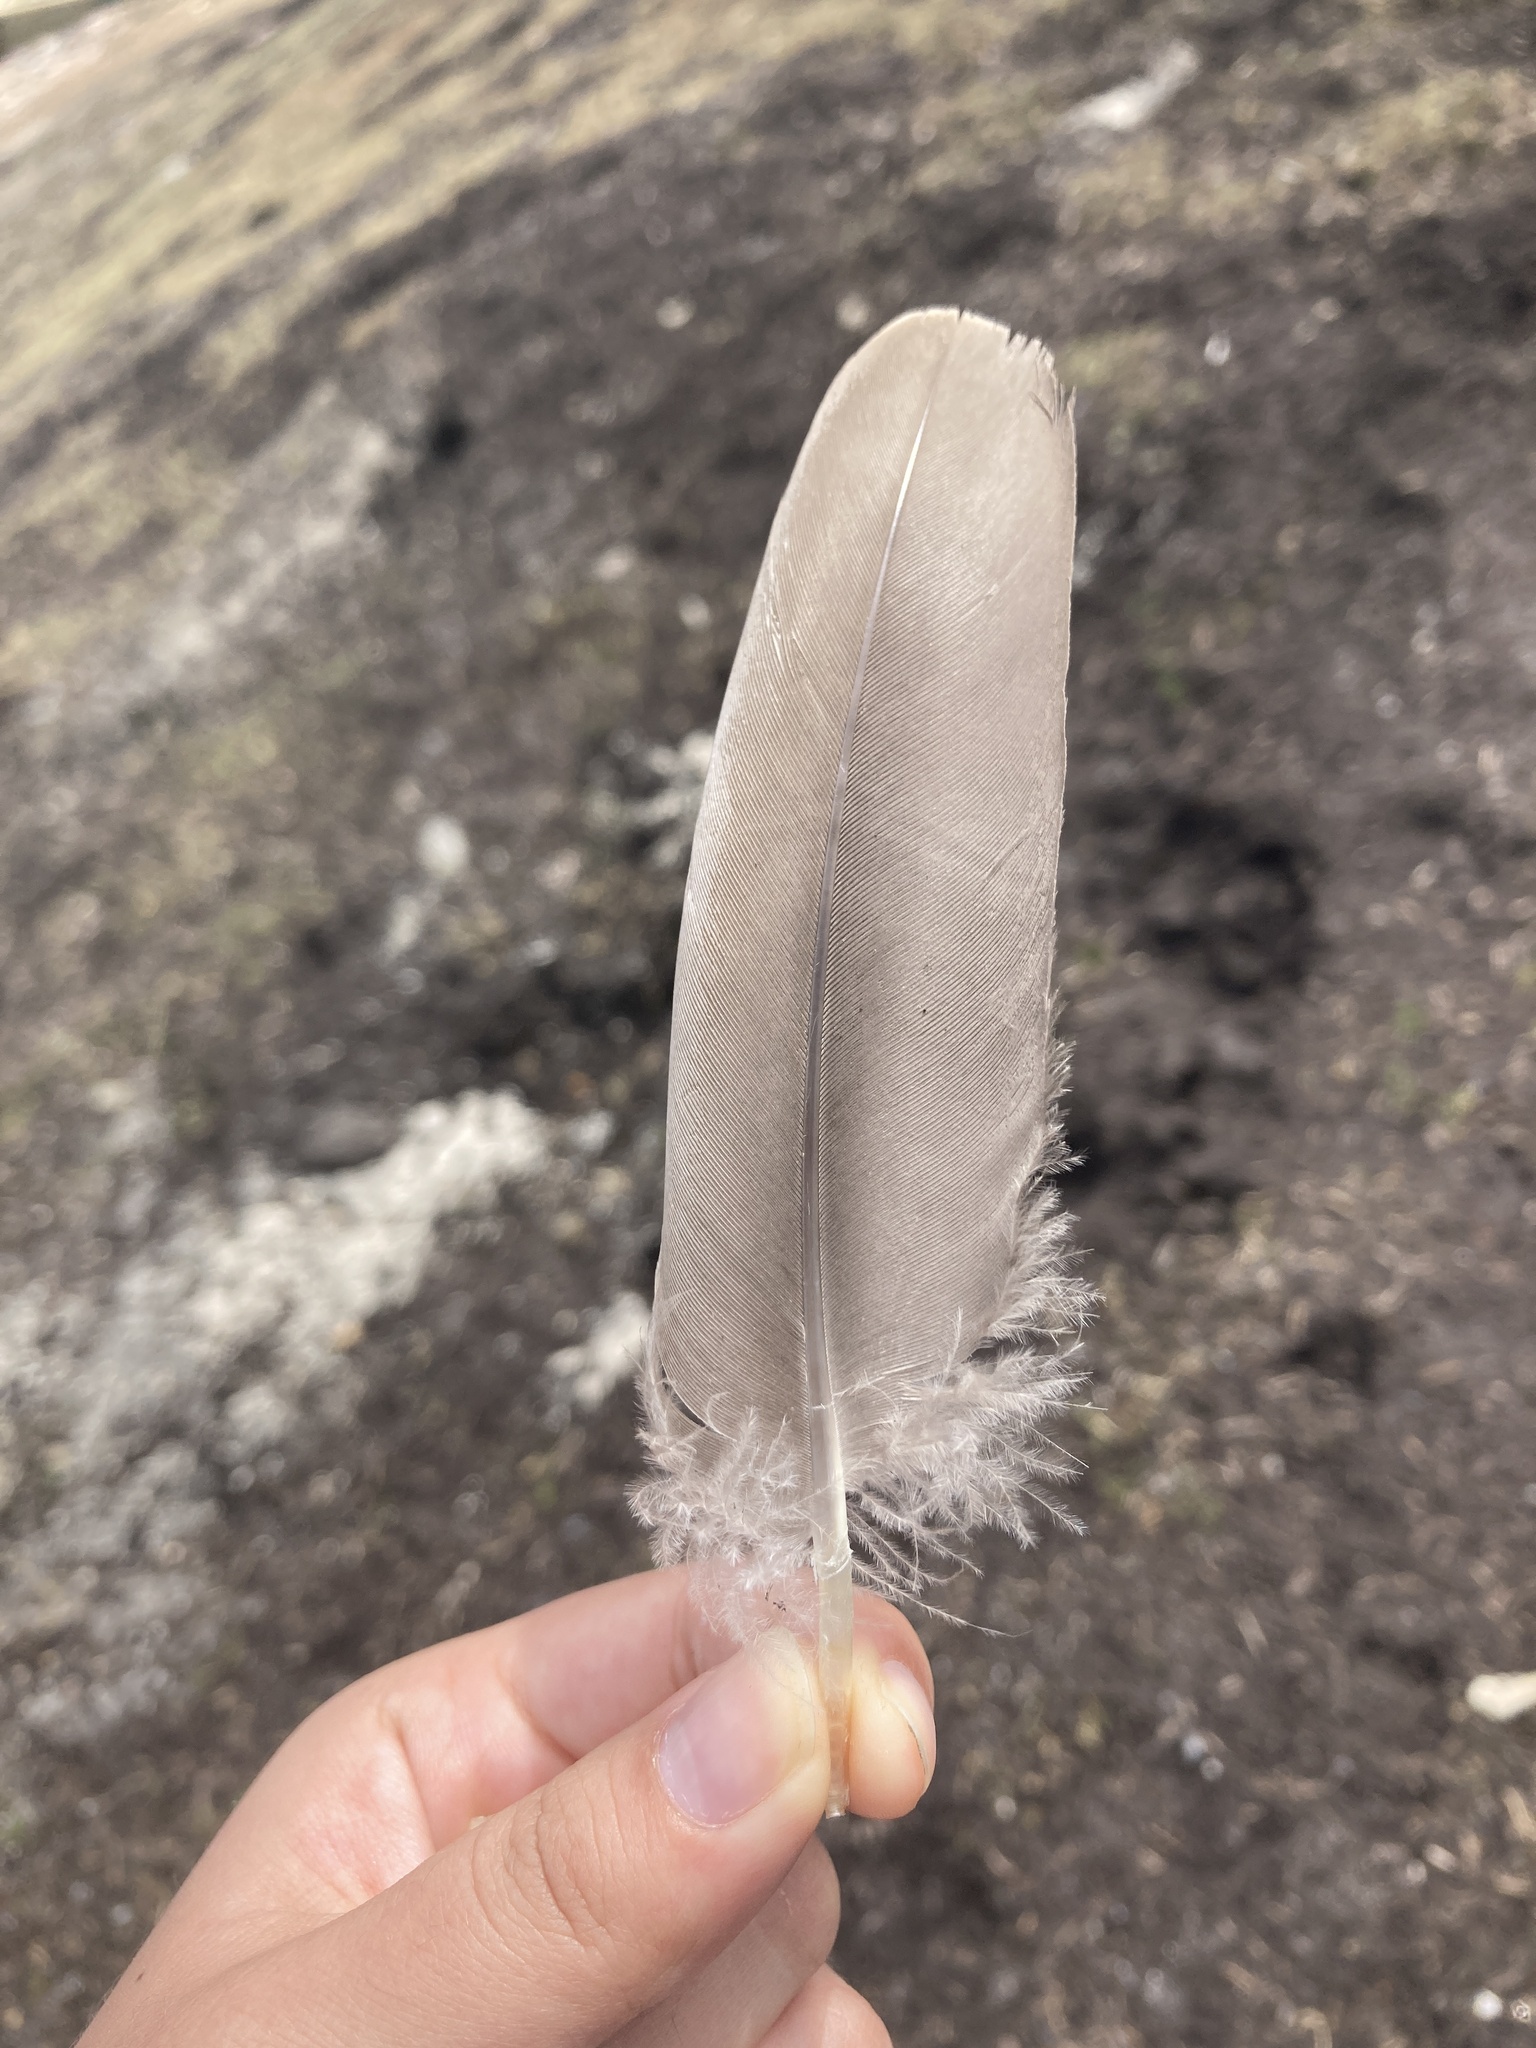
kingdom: Animalia
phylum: Chordata
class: Aves
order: Anseriformes
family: Anatidae
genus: Branta
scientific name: Branta canadensis
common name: Canada goose
